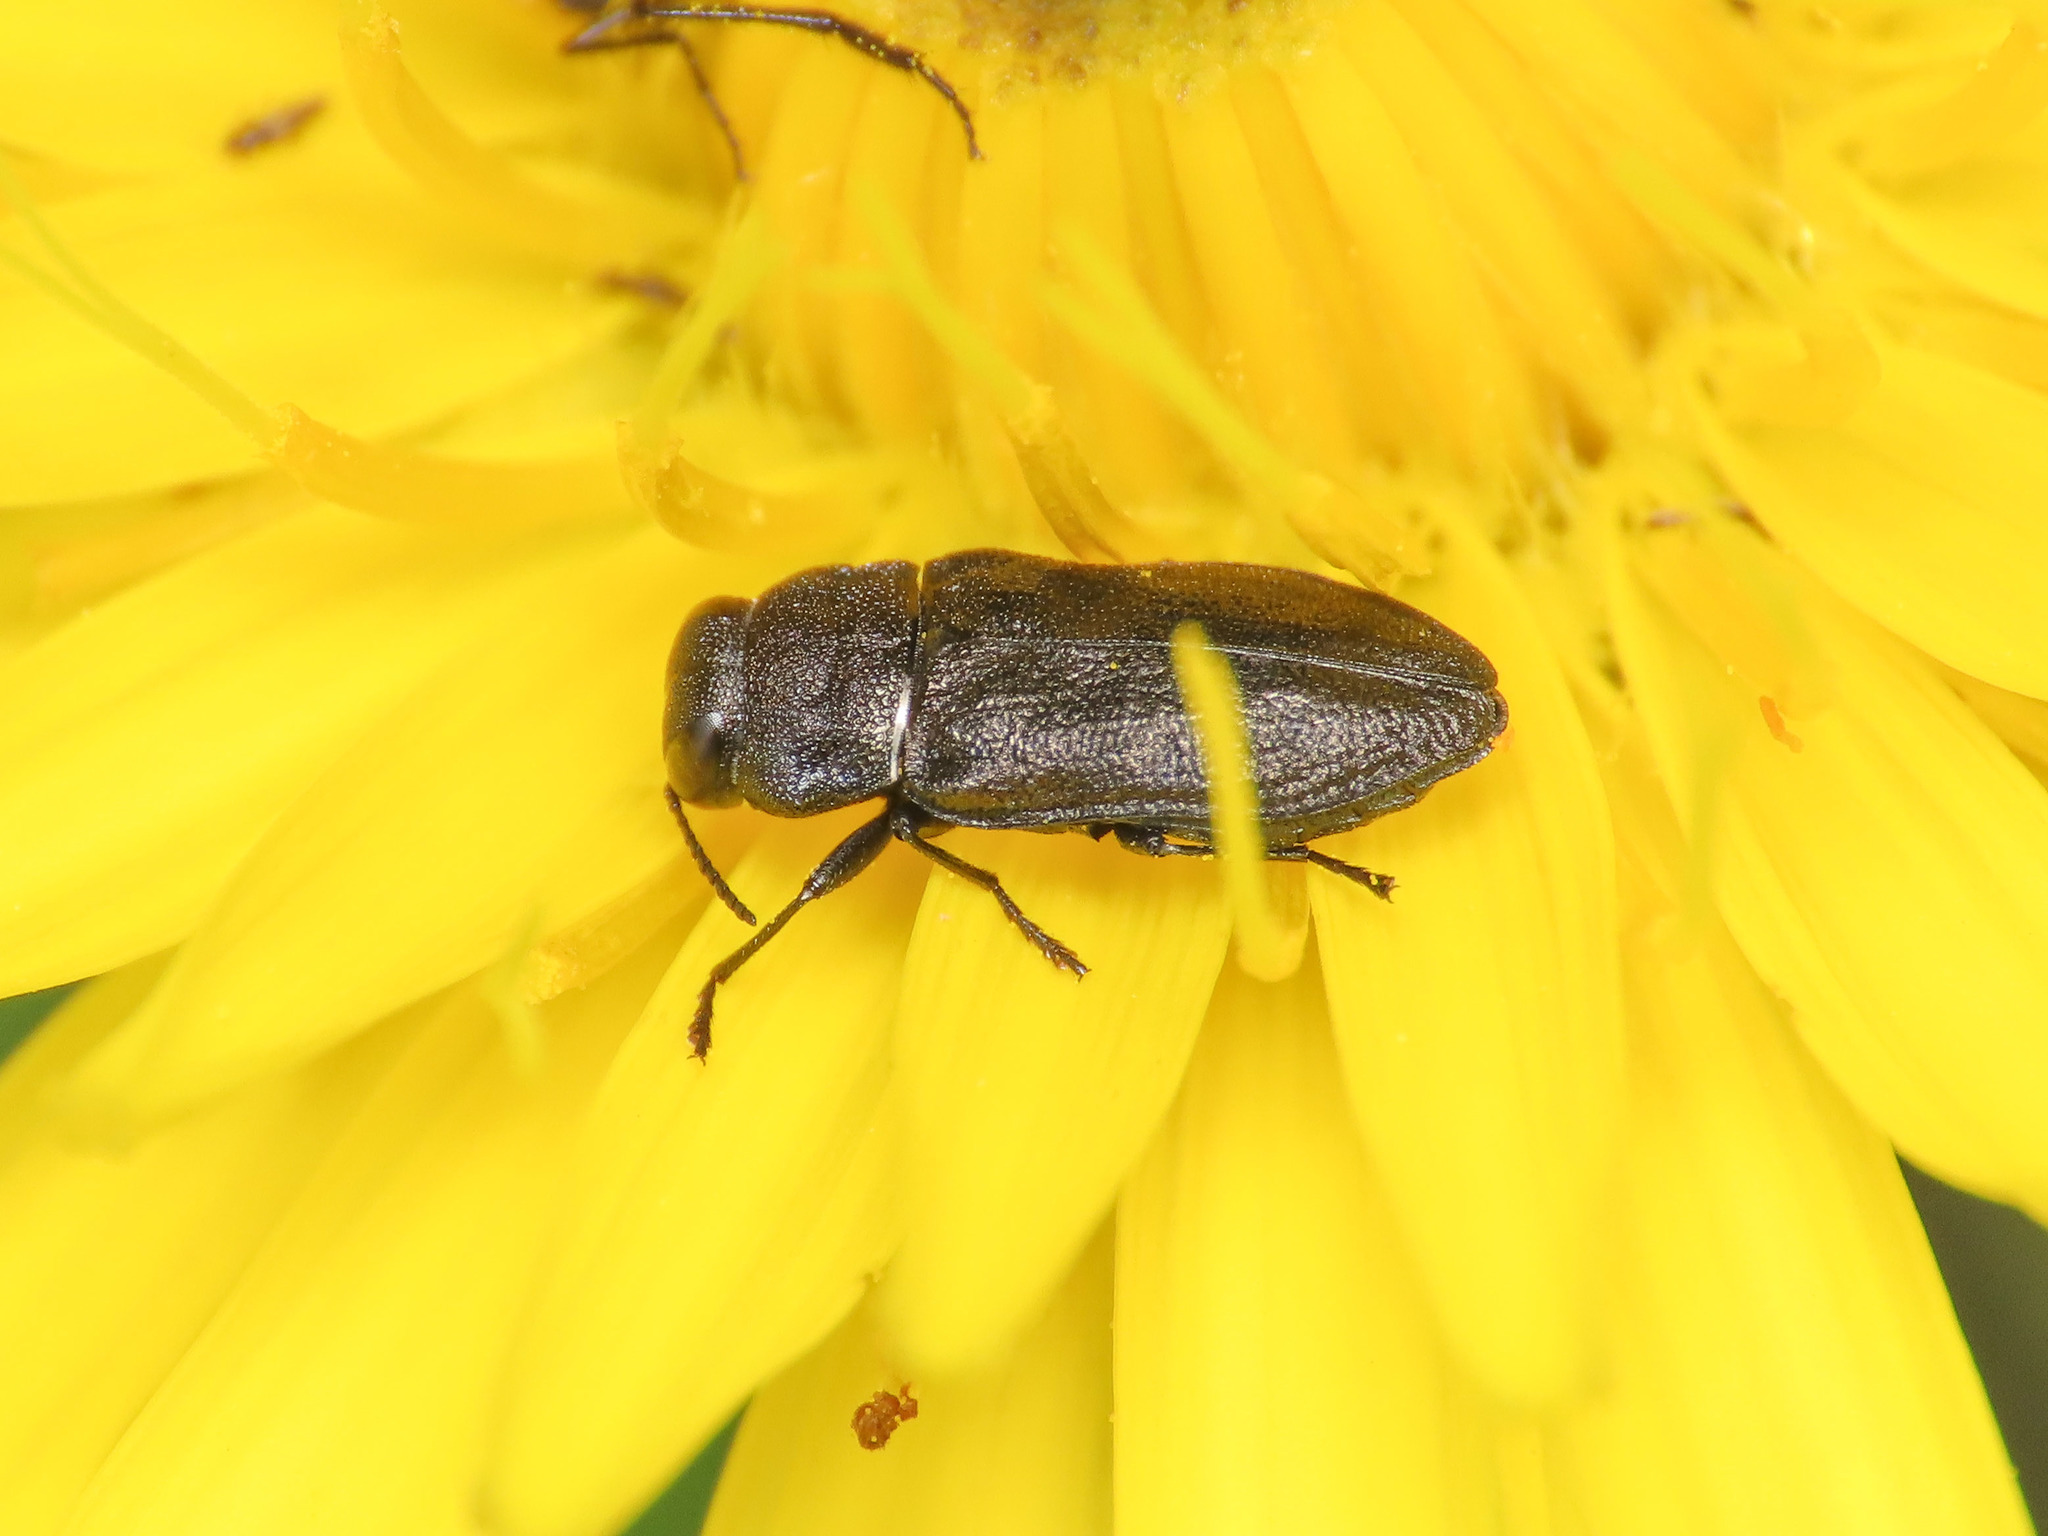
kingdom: Animalia
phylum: Arthropoda
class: Insecta
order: Coleoptera
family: Buprestidae
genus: Anthaxia
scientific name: Anthaxia quadripunctata
